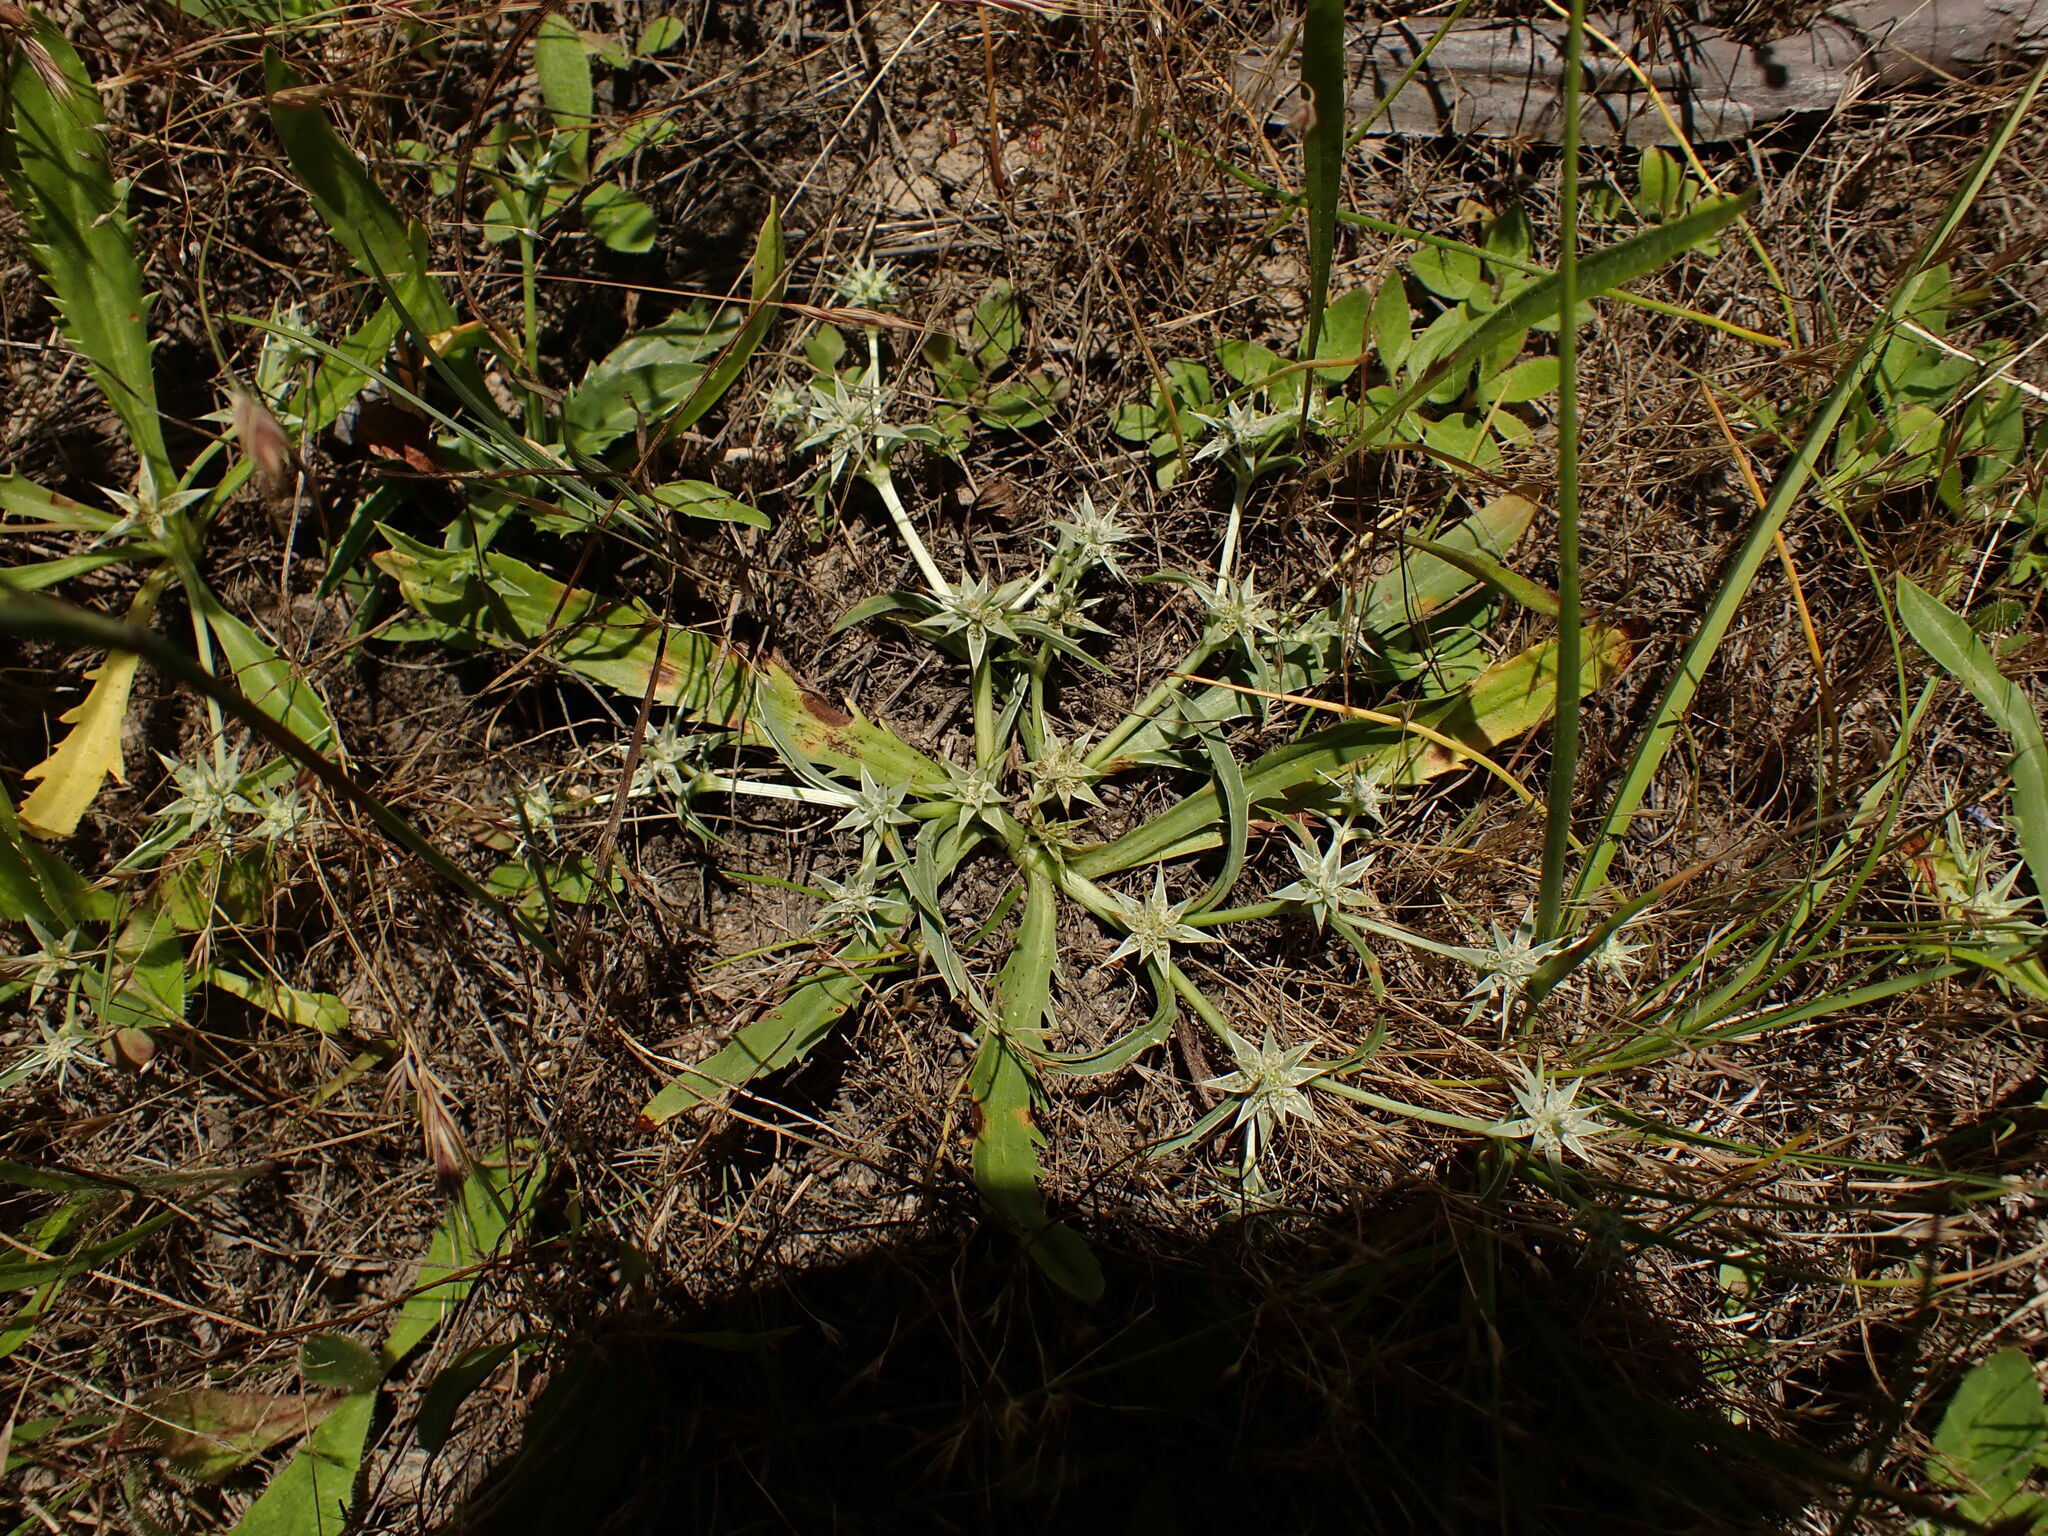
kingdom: Plantae
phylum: Tracheophyta
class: Magnoliopsida
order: Apiales
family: Apiaceae
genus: Eryngium
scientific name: Eryngium armatum
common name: Coyote thistle
